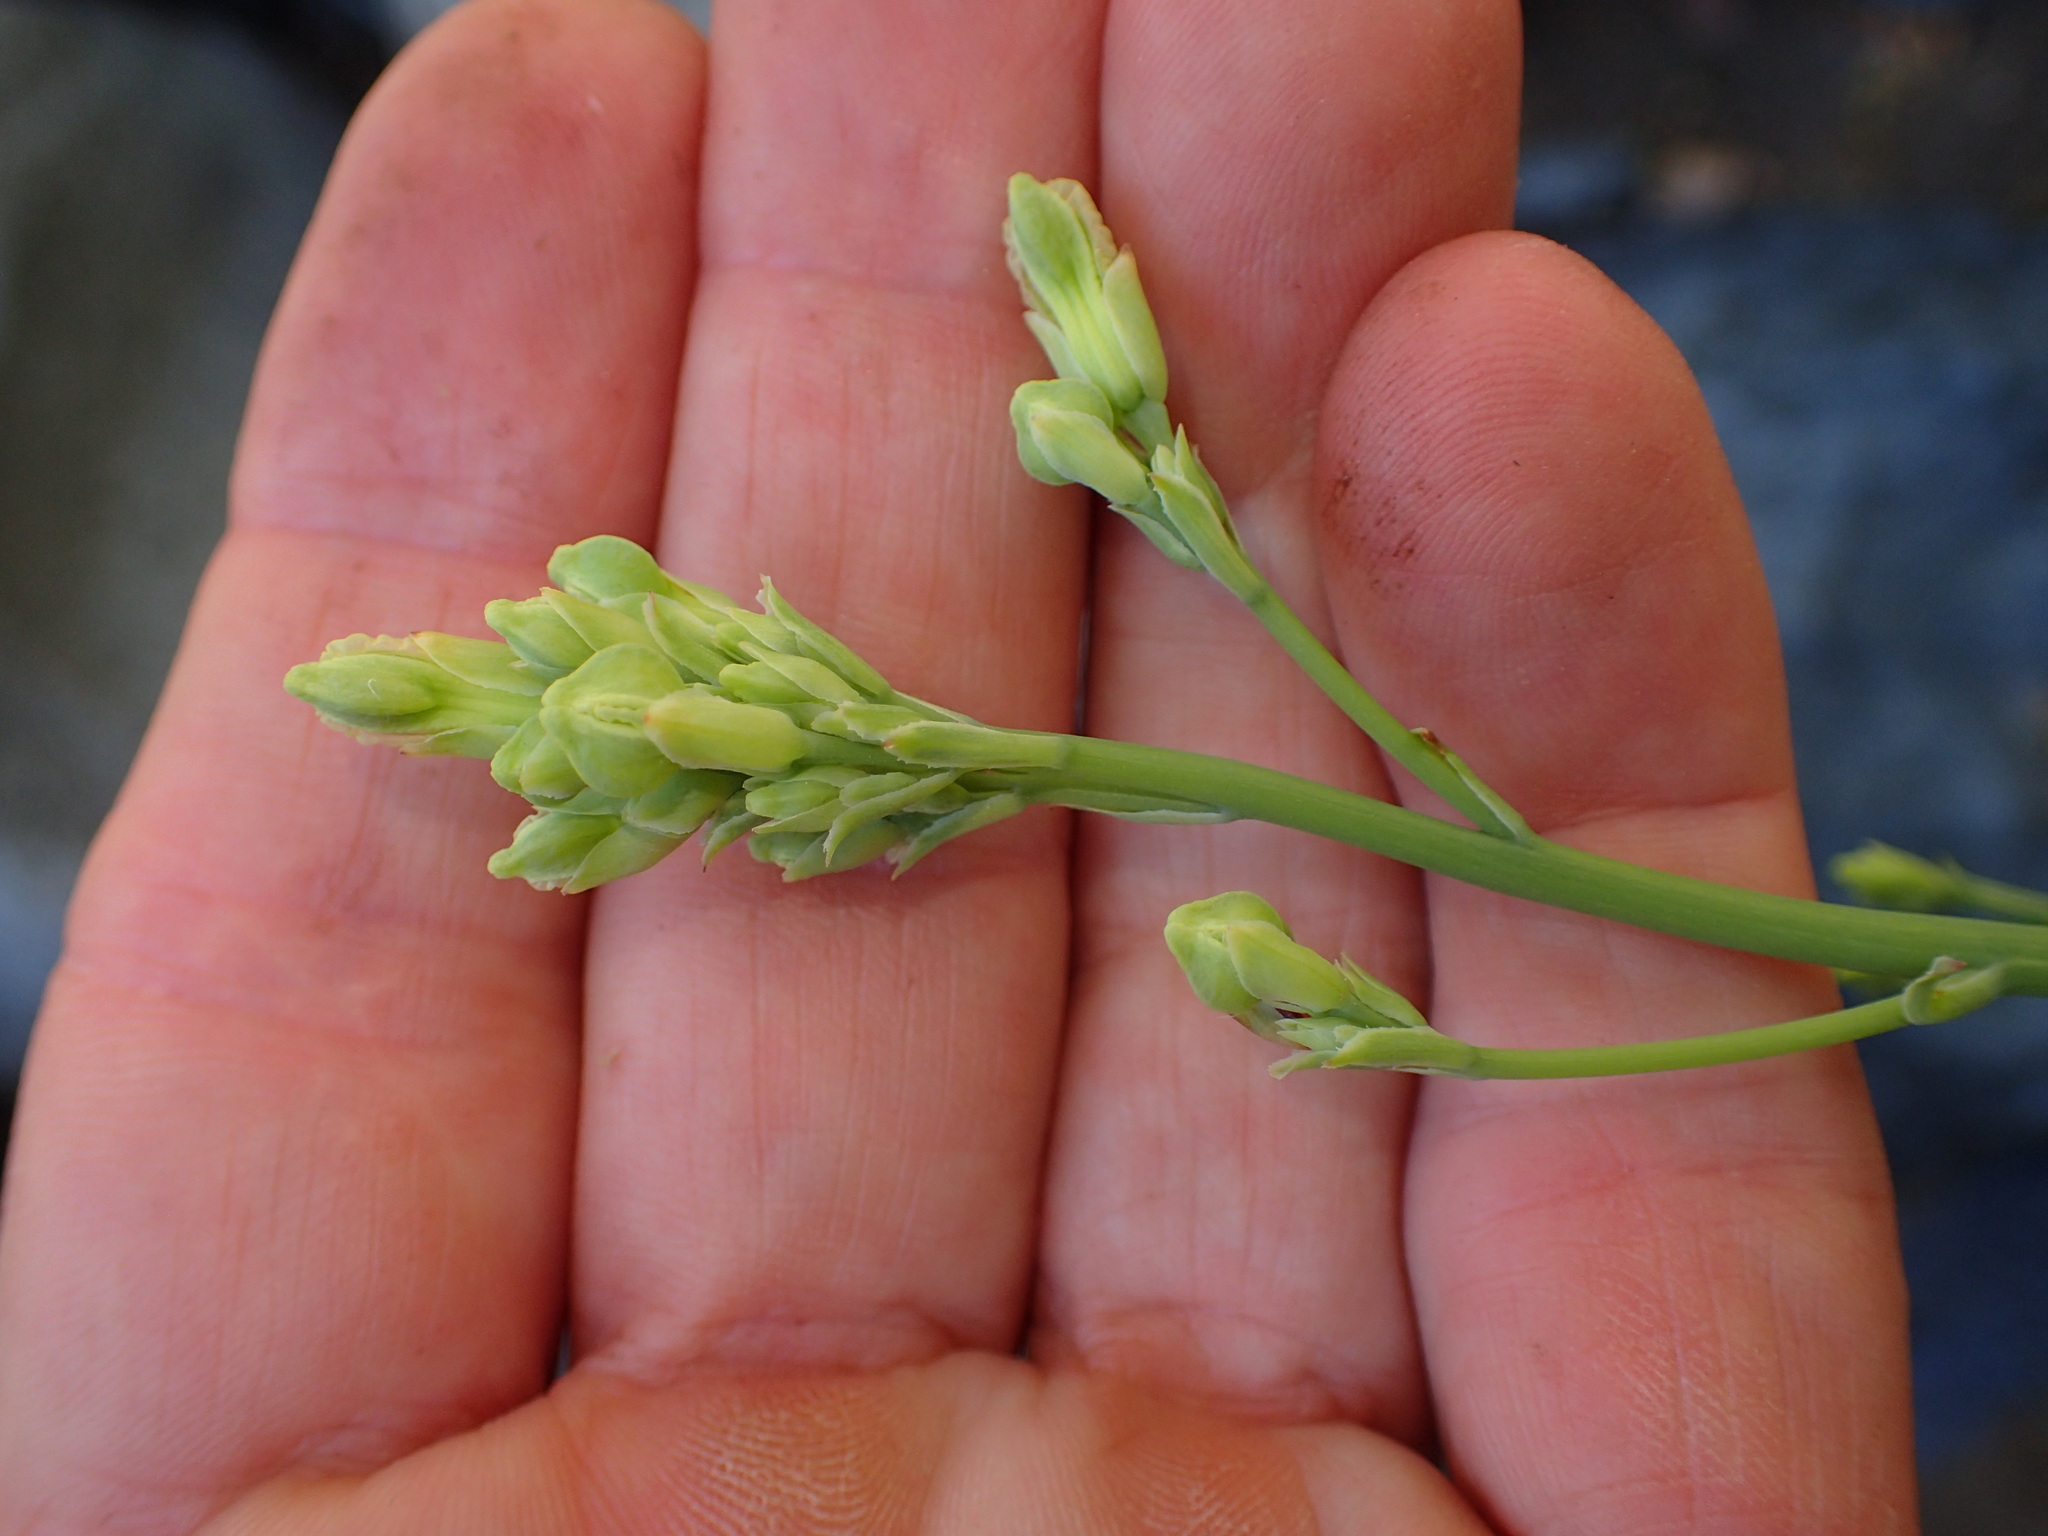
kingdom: Plantae
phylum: Tracheophyta
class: Magnoliopsida
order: Ranunculales
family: Papaveraceae
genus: Ehrendorferia
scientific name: Ehrendorferia chrysantha
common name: Golden eardrops
